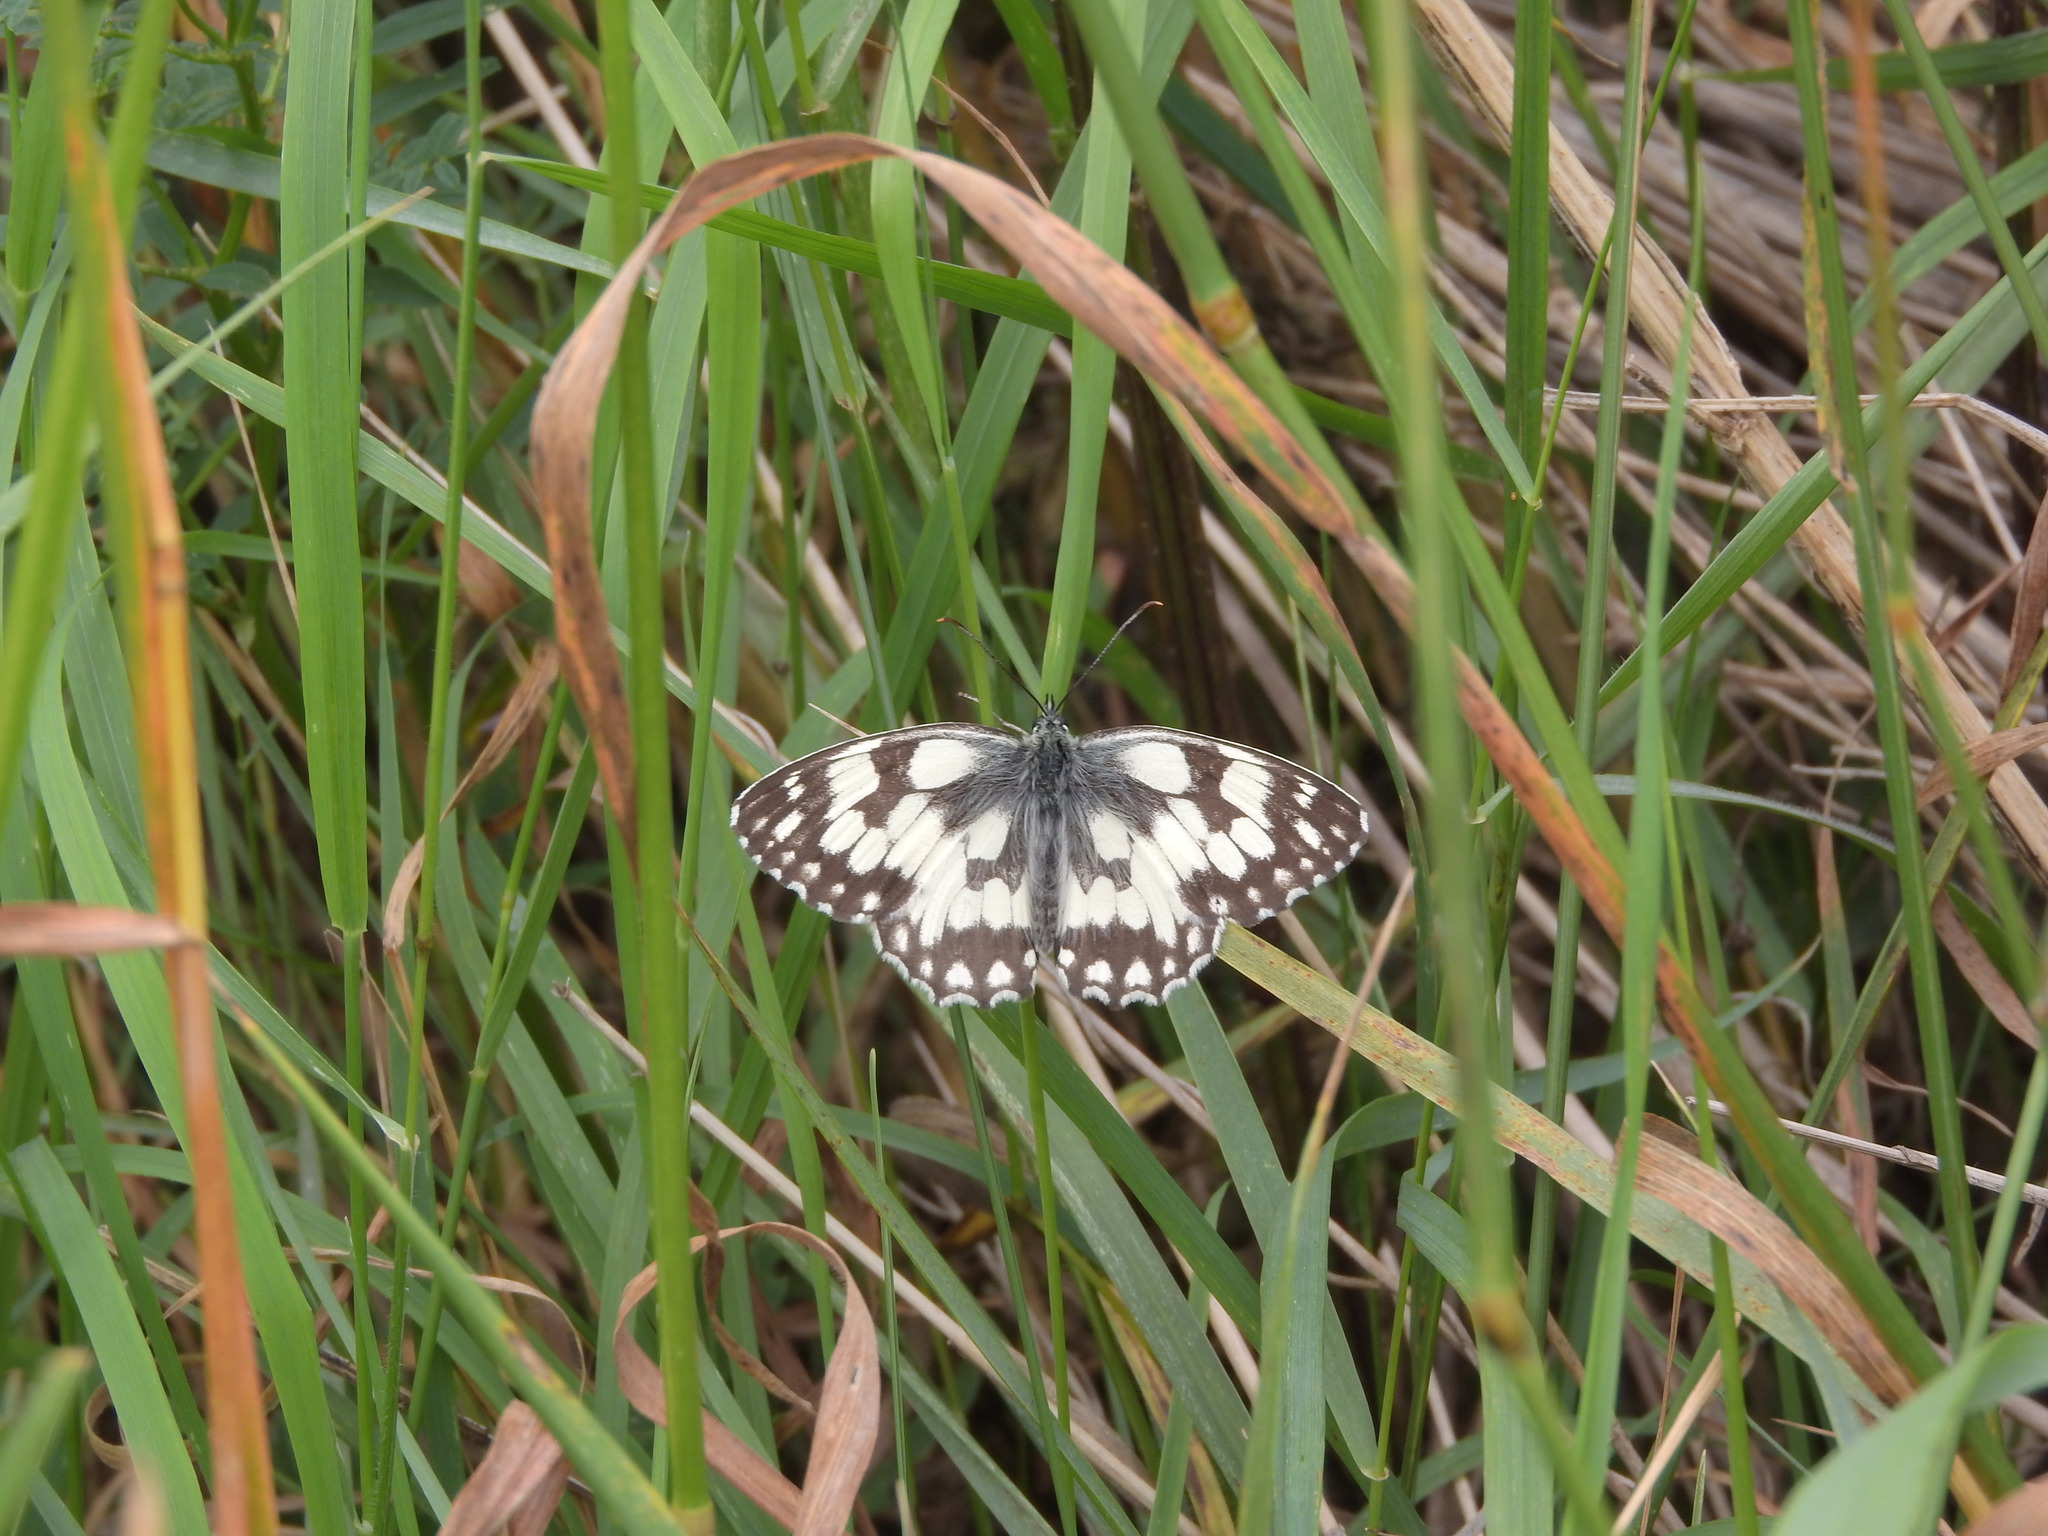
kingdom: Animalia
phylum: Arthropoda
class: Insecta
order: Lepidoptera
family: Nymphalidae
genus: Melanargia
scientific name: Melanargia galathea
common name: Marbled white
